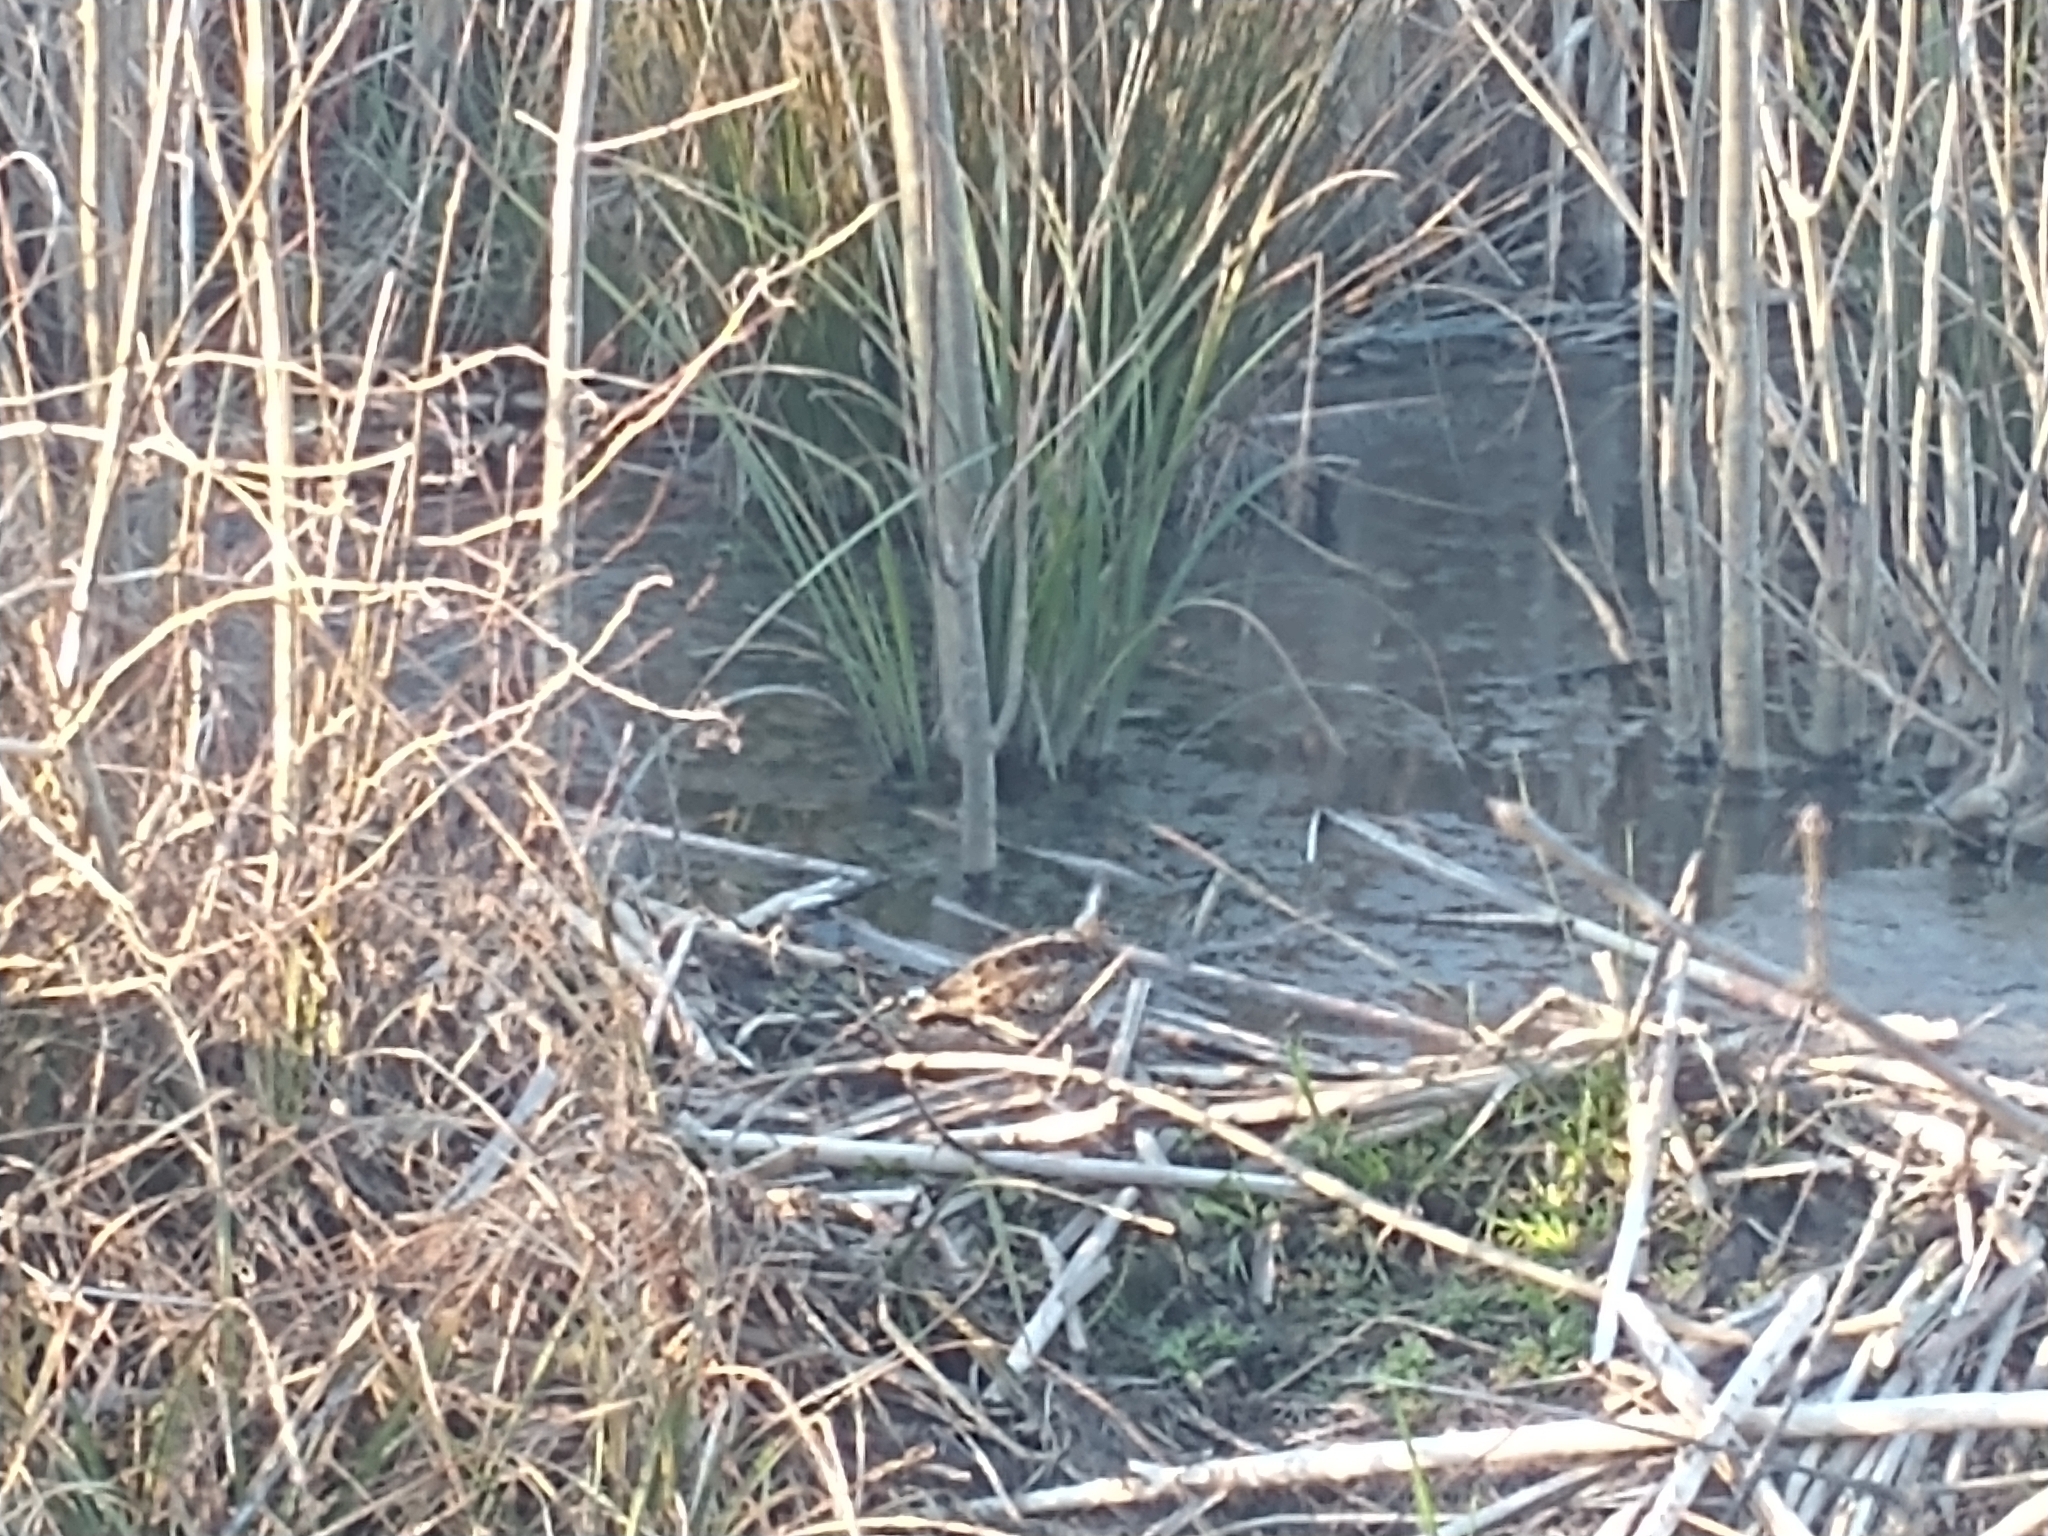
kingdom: Animalia
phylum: Chordata
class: Aves
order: Charadriiformes
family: Scolopacidae
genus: Gallinago
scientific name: Gallinago delicata
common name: Wilson's snipe
